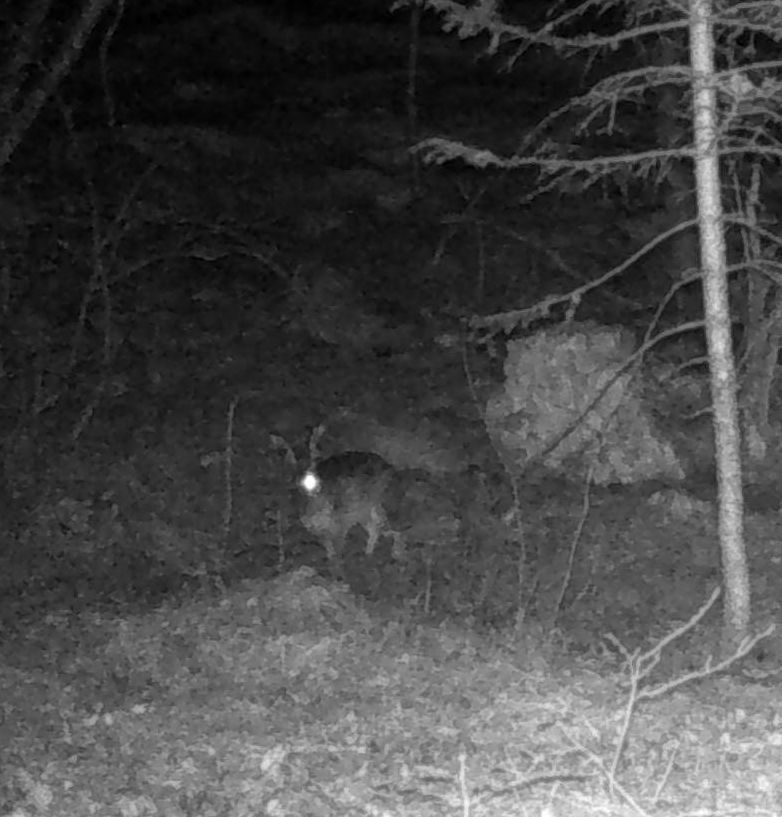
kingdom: Animalia
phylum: Chordata
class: Mammalia
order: Lagomorpha
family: Leporidae
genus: Lepus
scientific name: Lepus timidus
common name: Mountain hare
